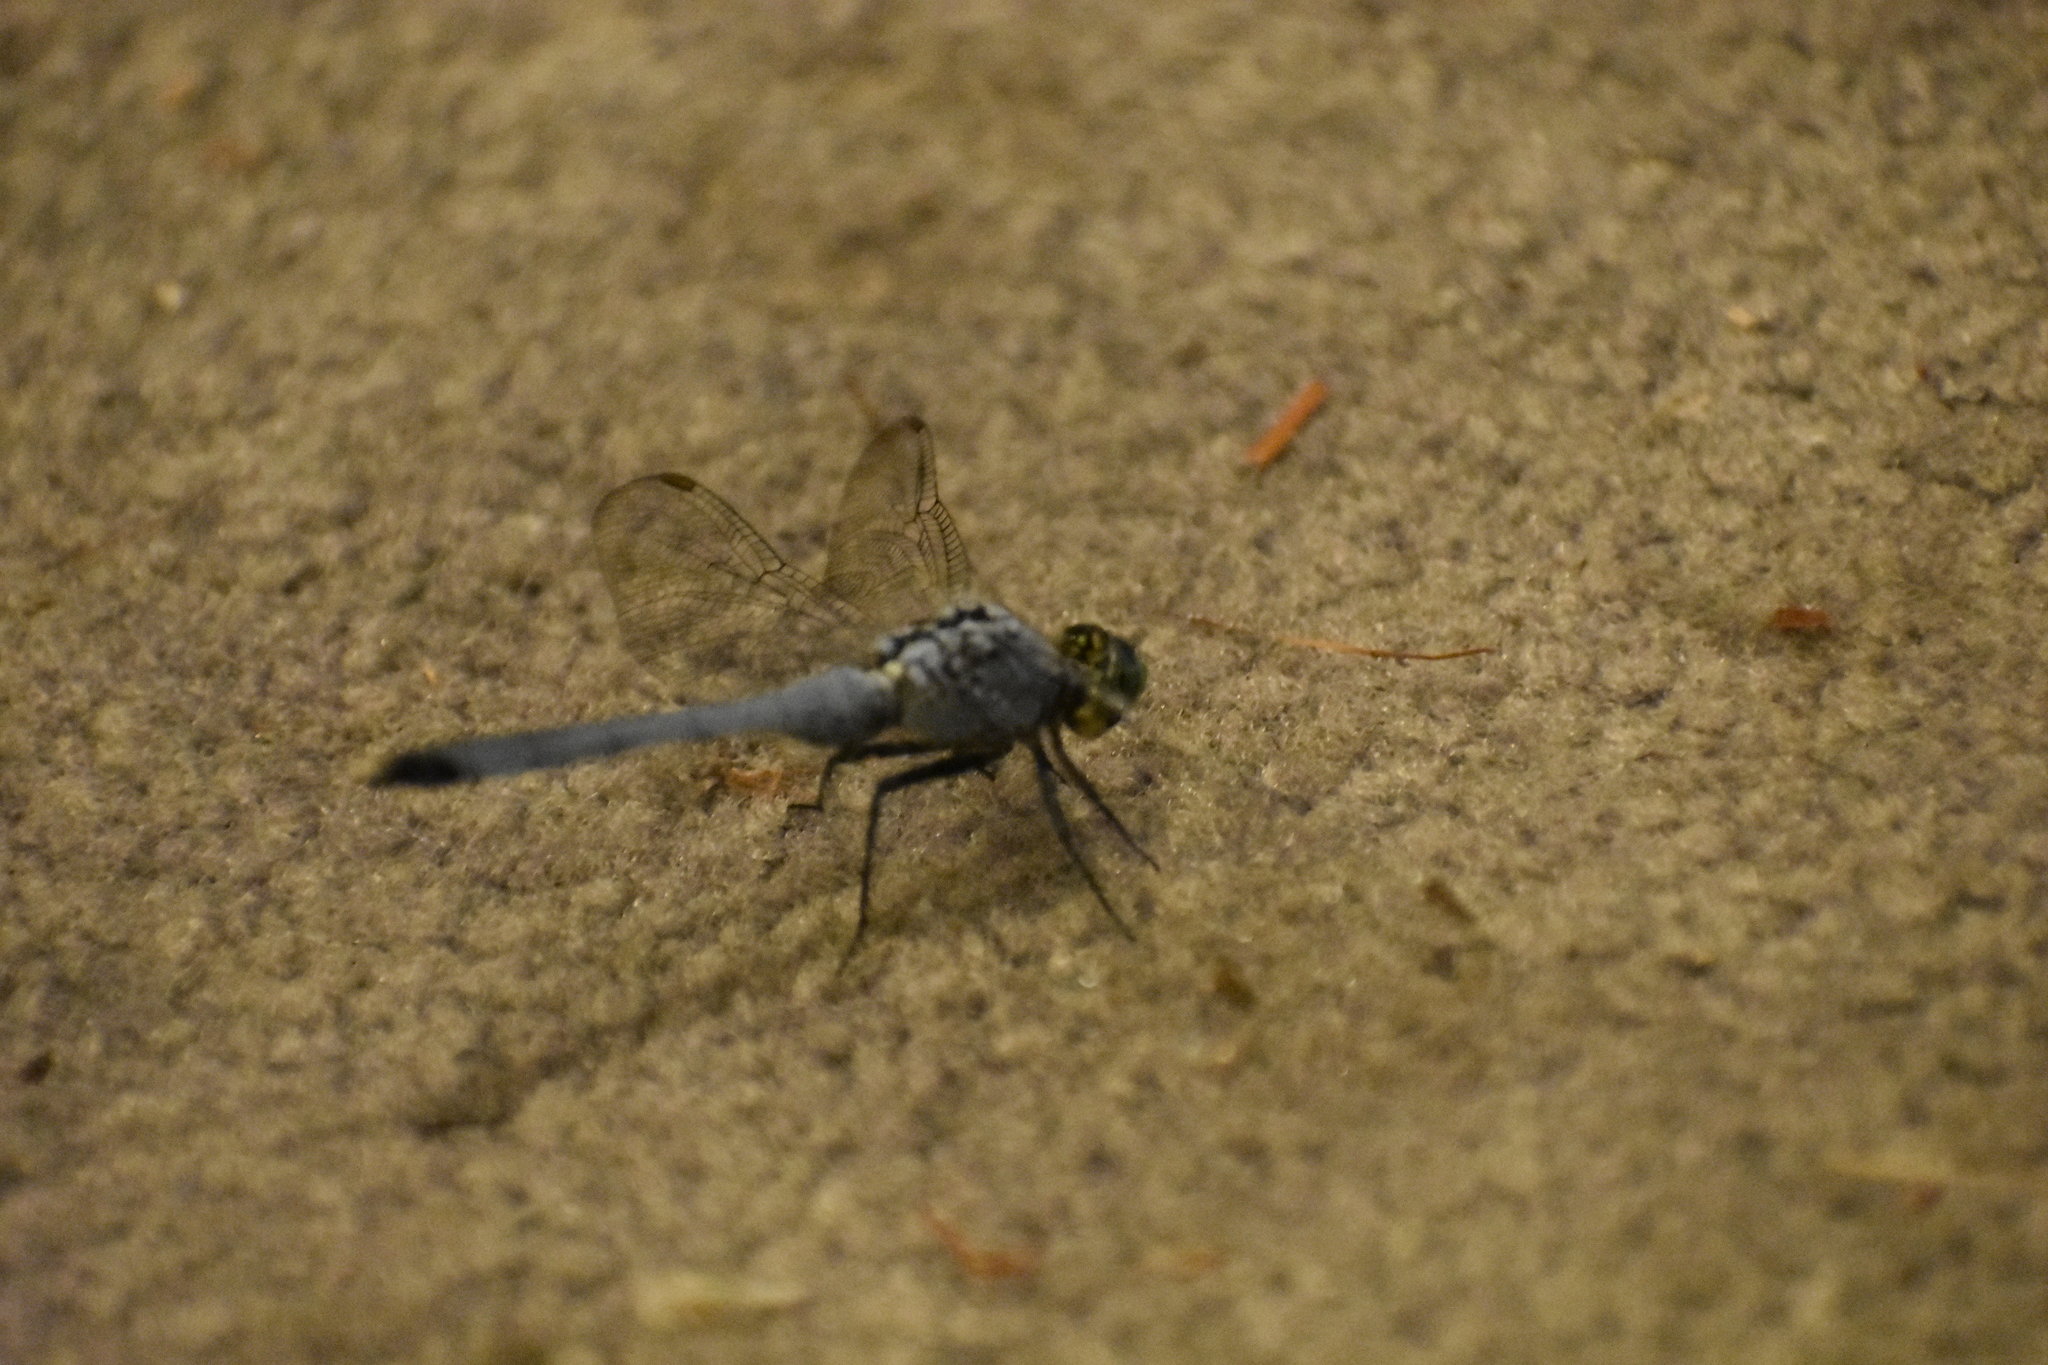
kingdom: Animalia
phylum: Arthropoda
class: Insecta
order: Odonata
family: Libellulidae
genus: Erythemis
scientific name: Erythemis simplicicollis
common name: Eastern pondhawk
